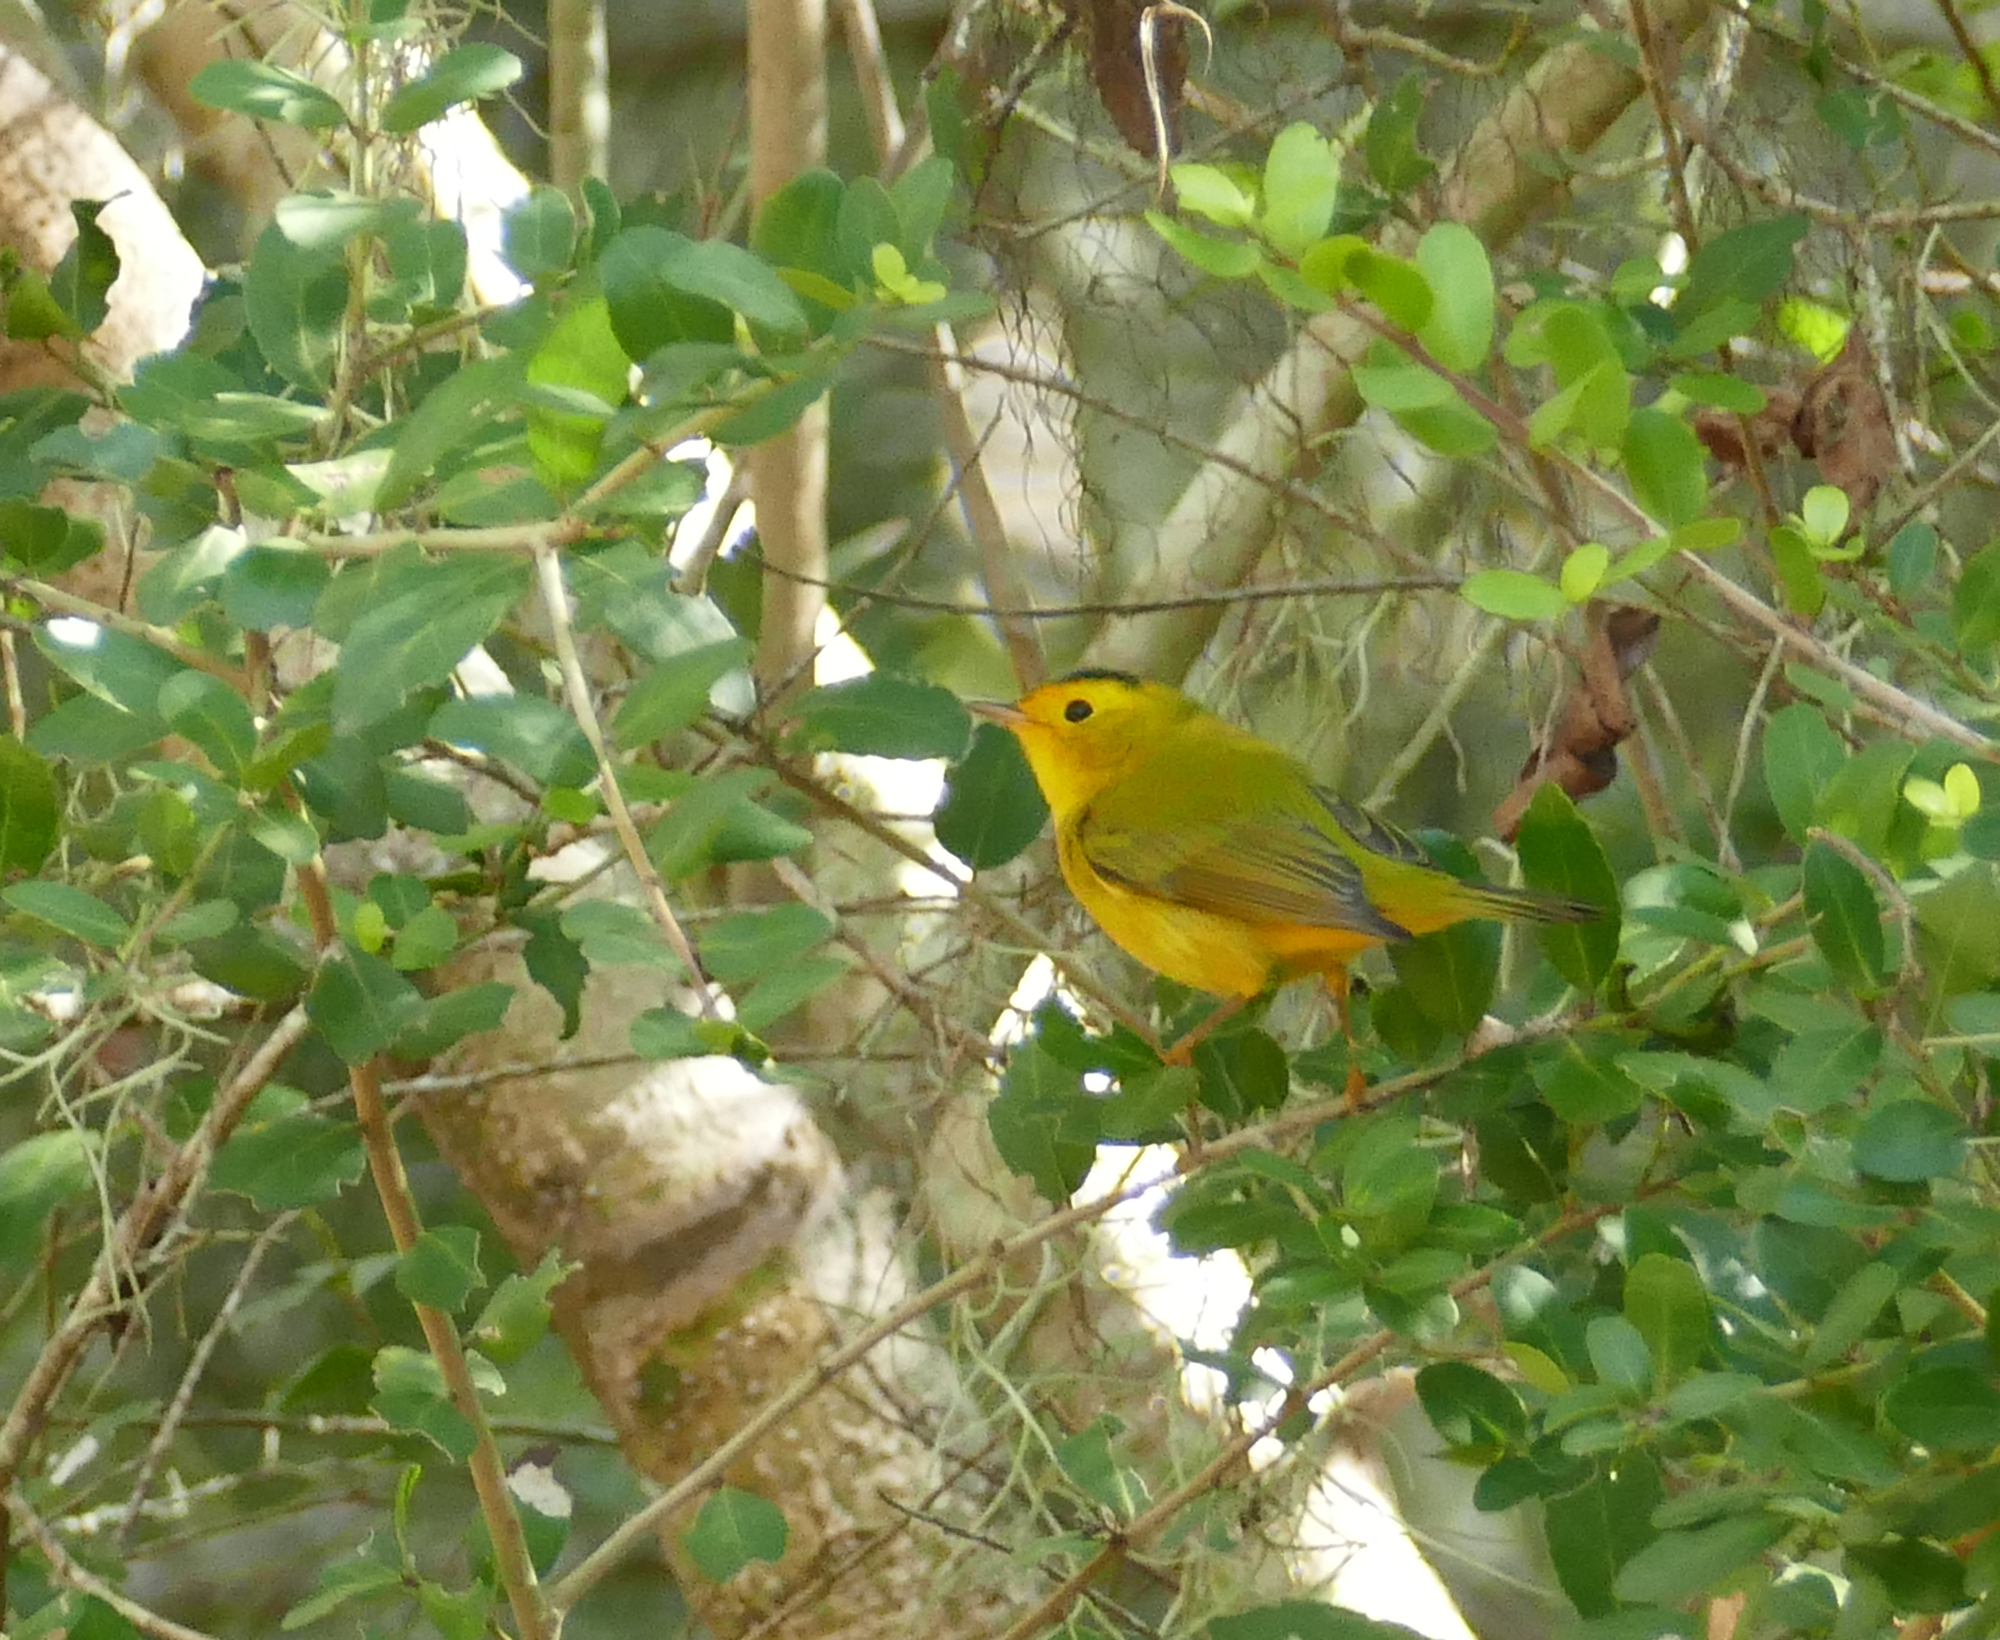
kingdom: Animalia
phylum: Chordata
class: Aves
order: Passeriformes
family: Parulidae
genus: Cardellina
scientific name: Cardellina pusilla
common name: Wilson's warbler
